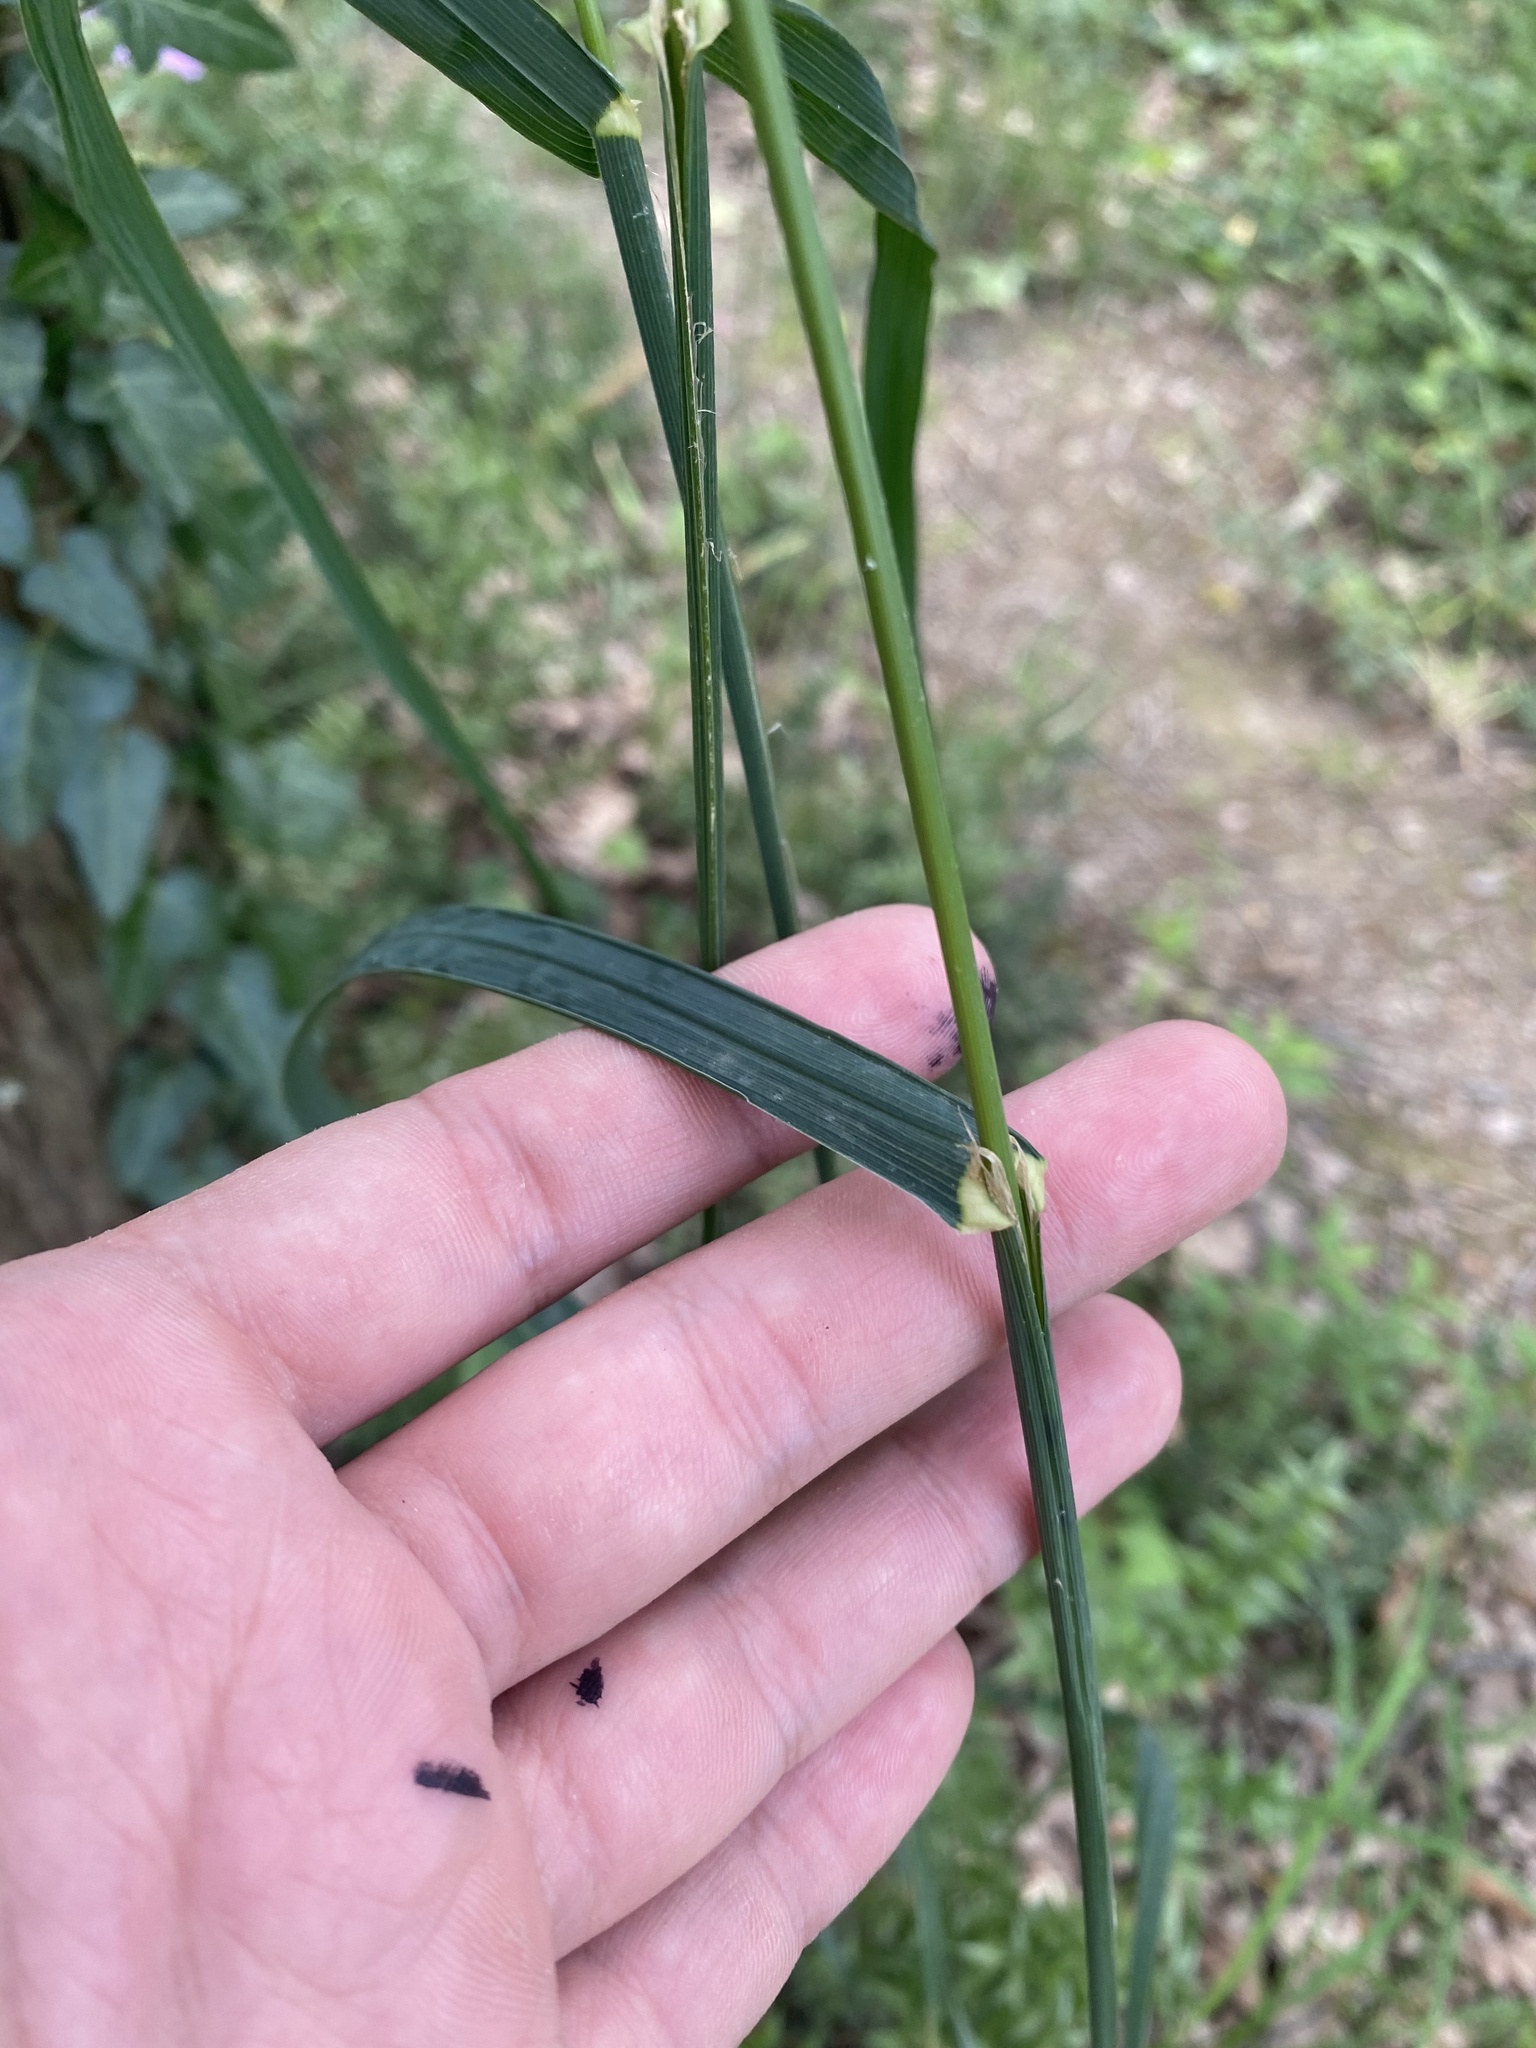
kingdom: Plantae
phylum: Tracheophyta
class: Liliopsida
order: Poales
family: Poaceae
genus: Dactylis
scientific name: Dactylis glomerata
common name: Orchardgrass
